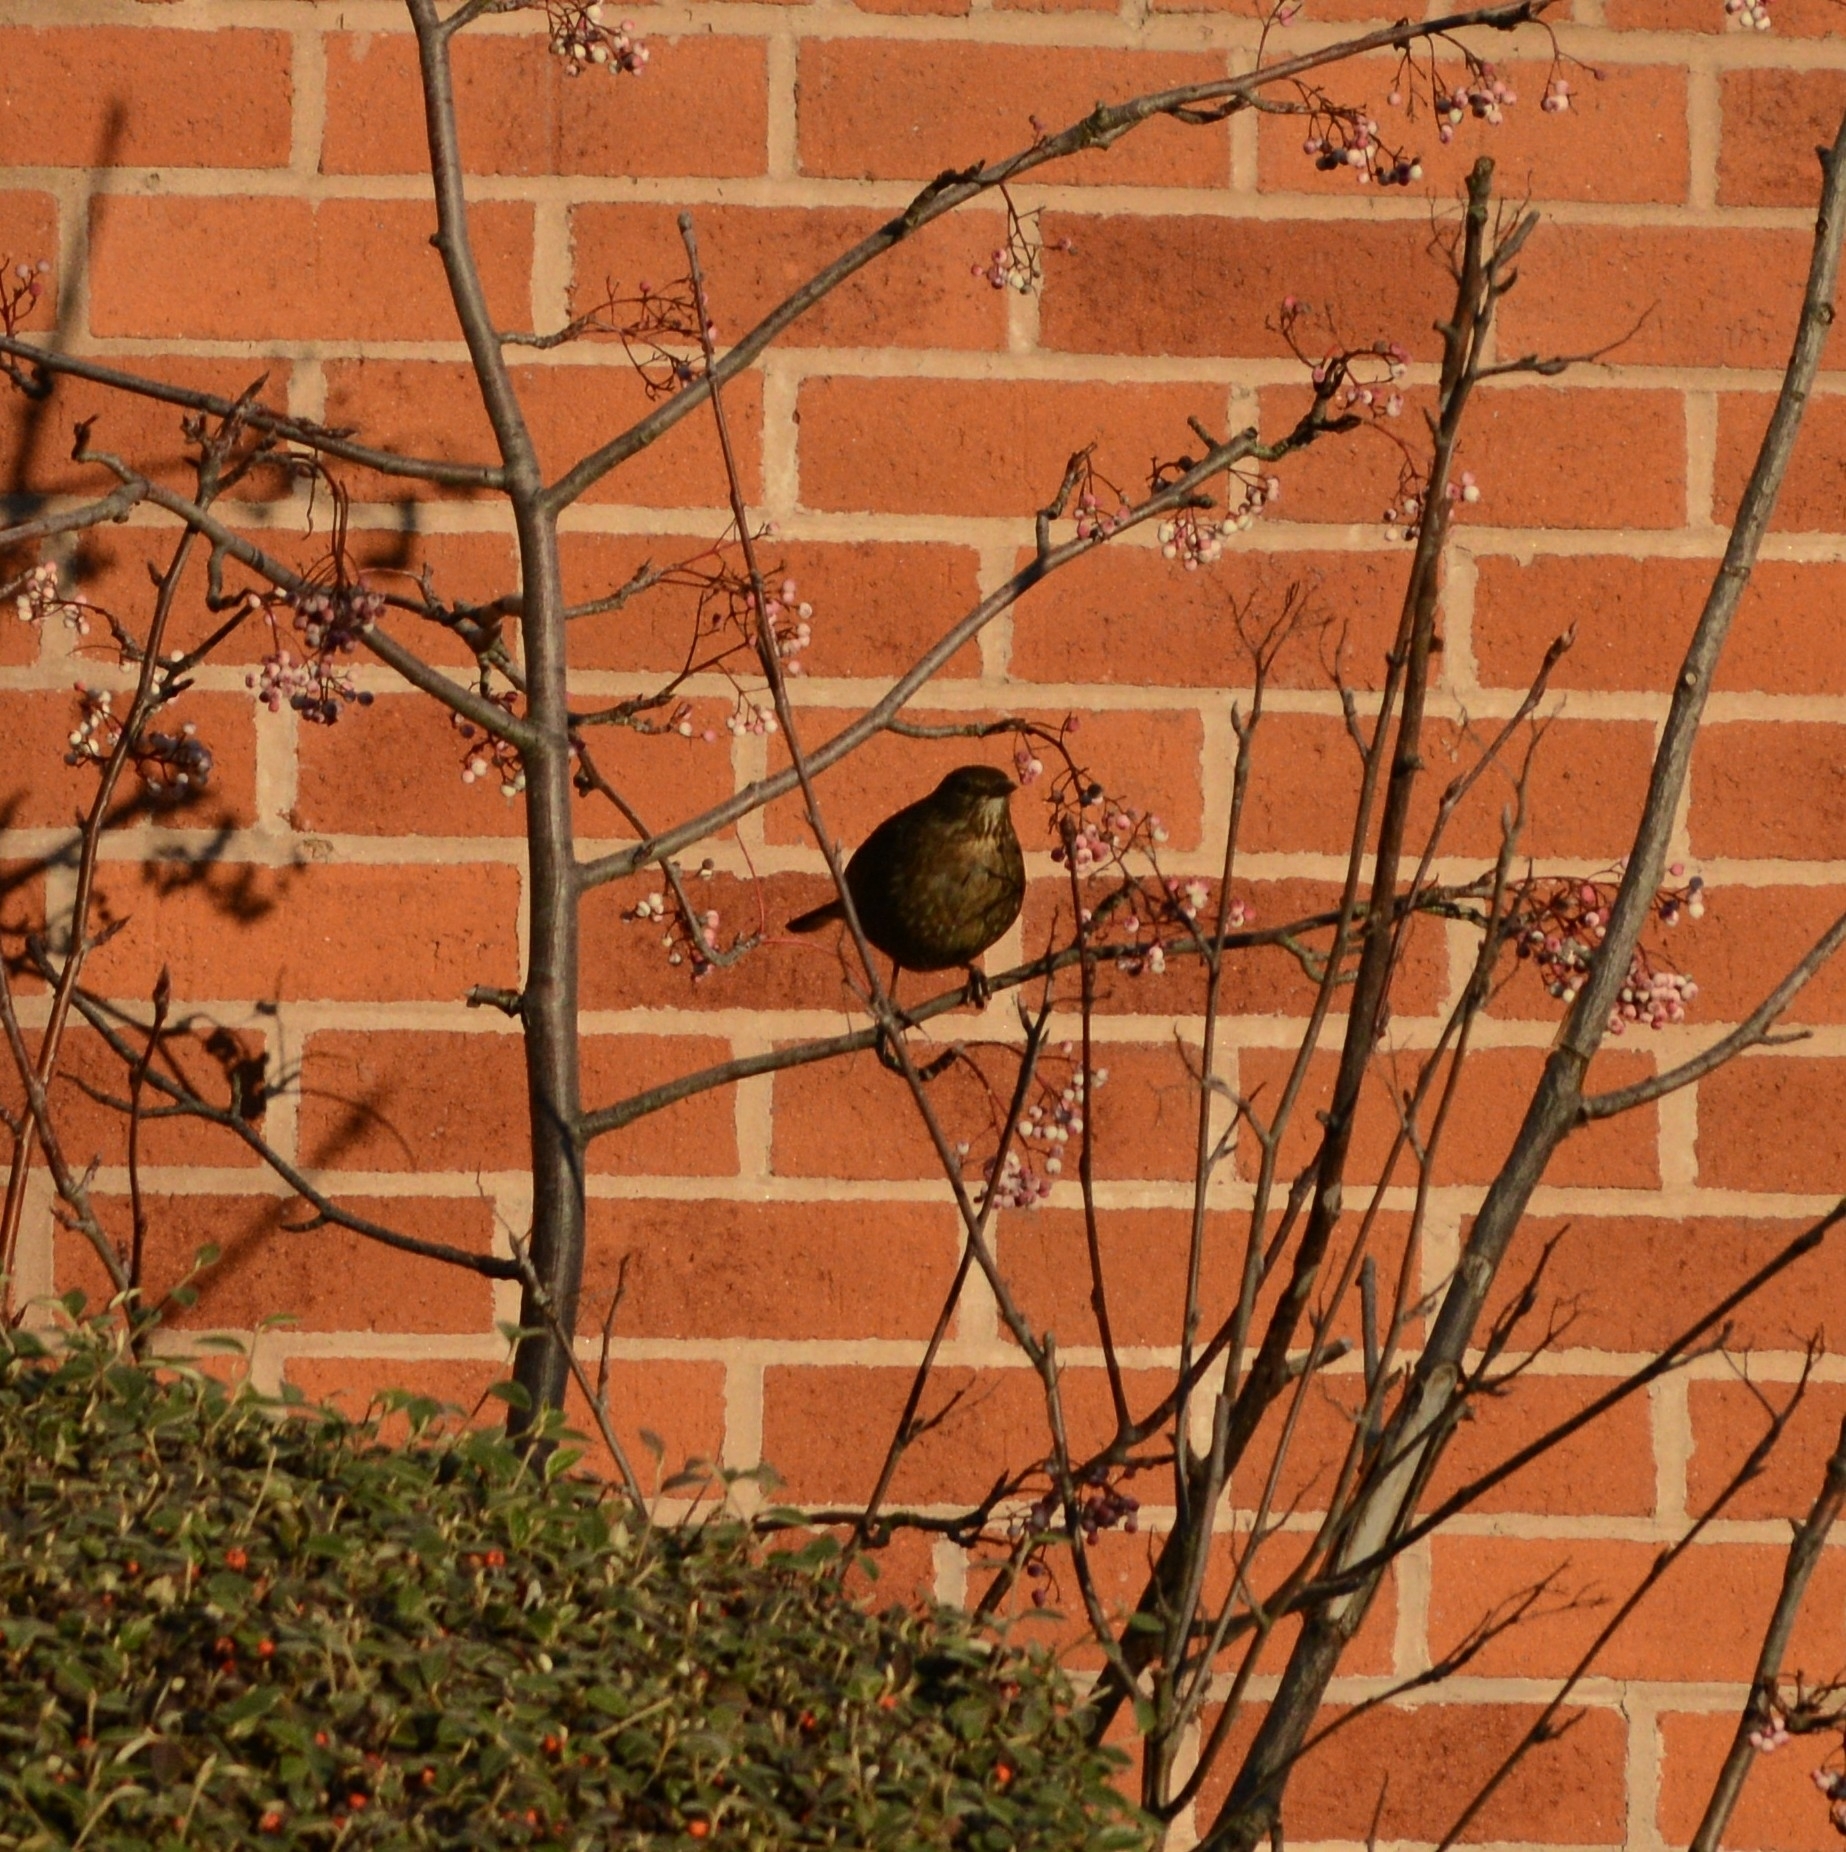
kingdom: Animalia
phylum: Chordata
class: Aves
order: Passeriformes
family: Turdidae
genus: Turdus
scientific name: Turdus merula
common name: Common blackbird
